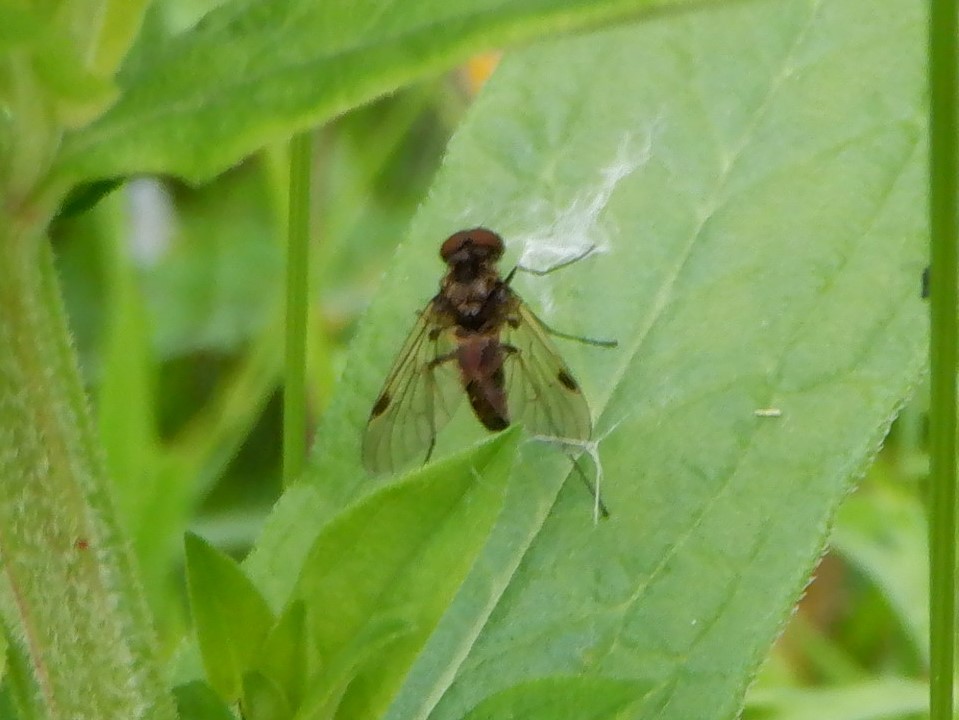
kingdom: Animalia
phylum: Arthropoda
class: Insecta
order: Diptera
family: Rhagionidae
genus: Chrysopilus
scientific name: Chrysopilus cristatus
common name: Black snipefly
